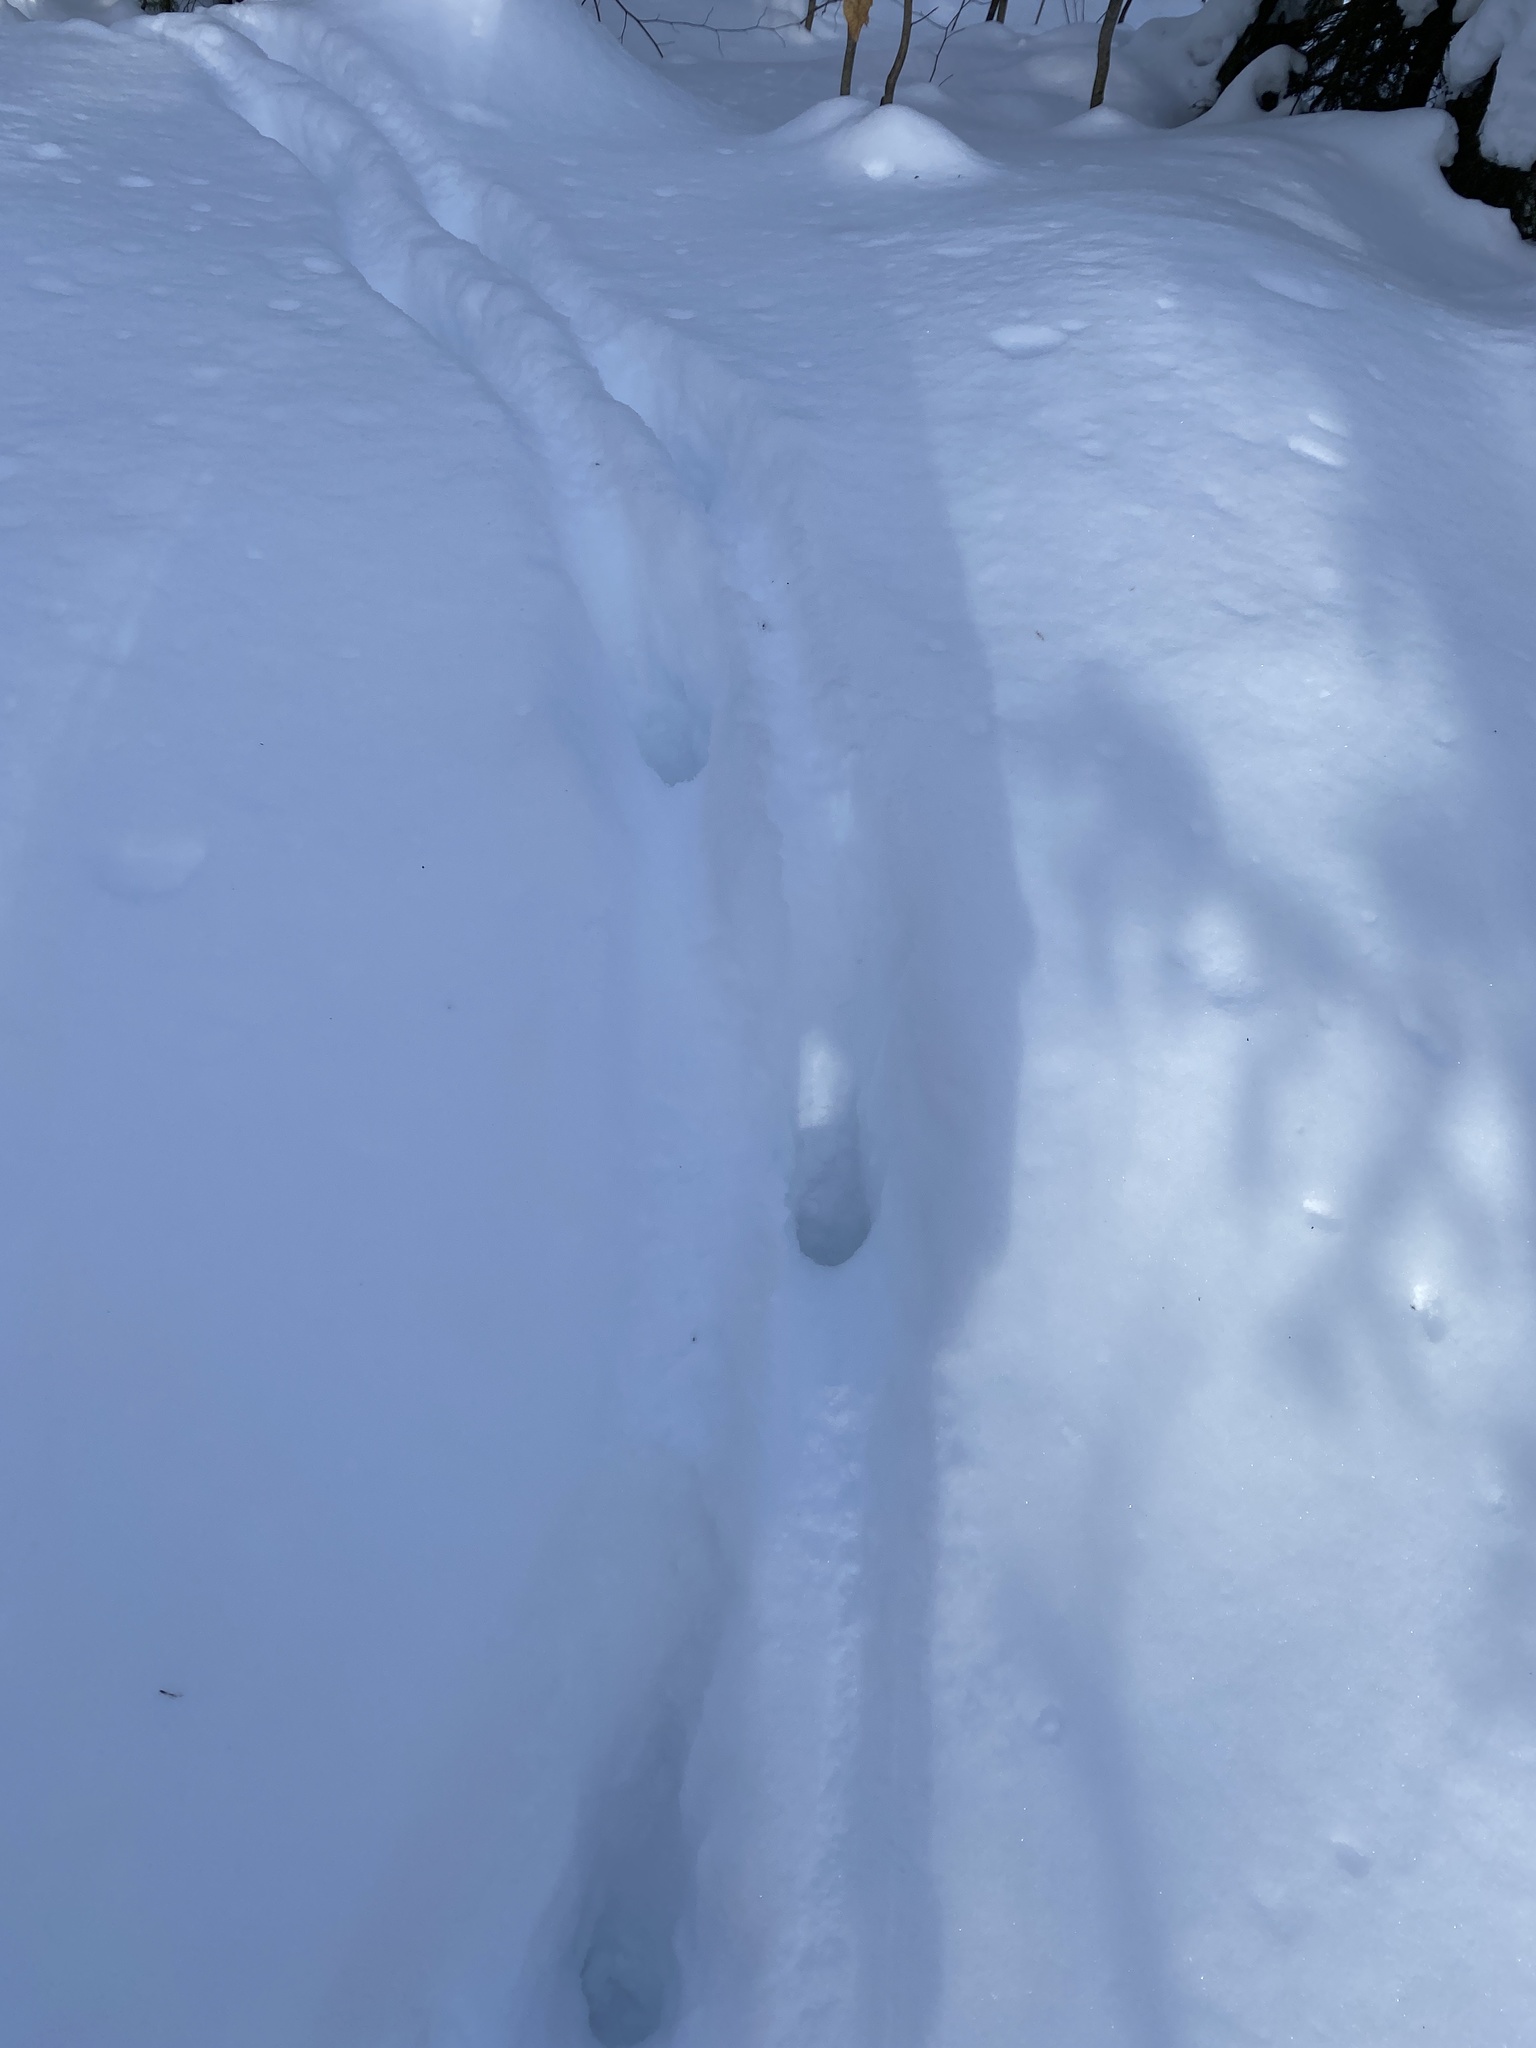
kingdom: Animalia
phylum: Chordata
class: Mammalia
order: Artiodactyla
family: Cervidae
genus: Odocoileus
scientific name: Odocoileus virginianus
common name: White-tailed deer
